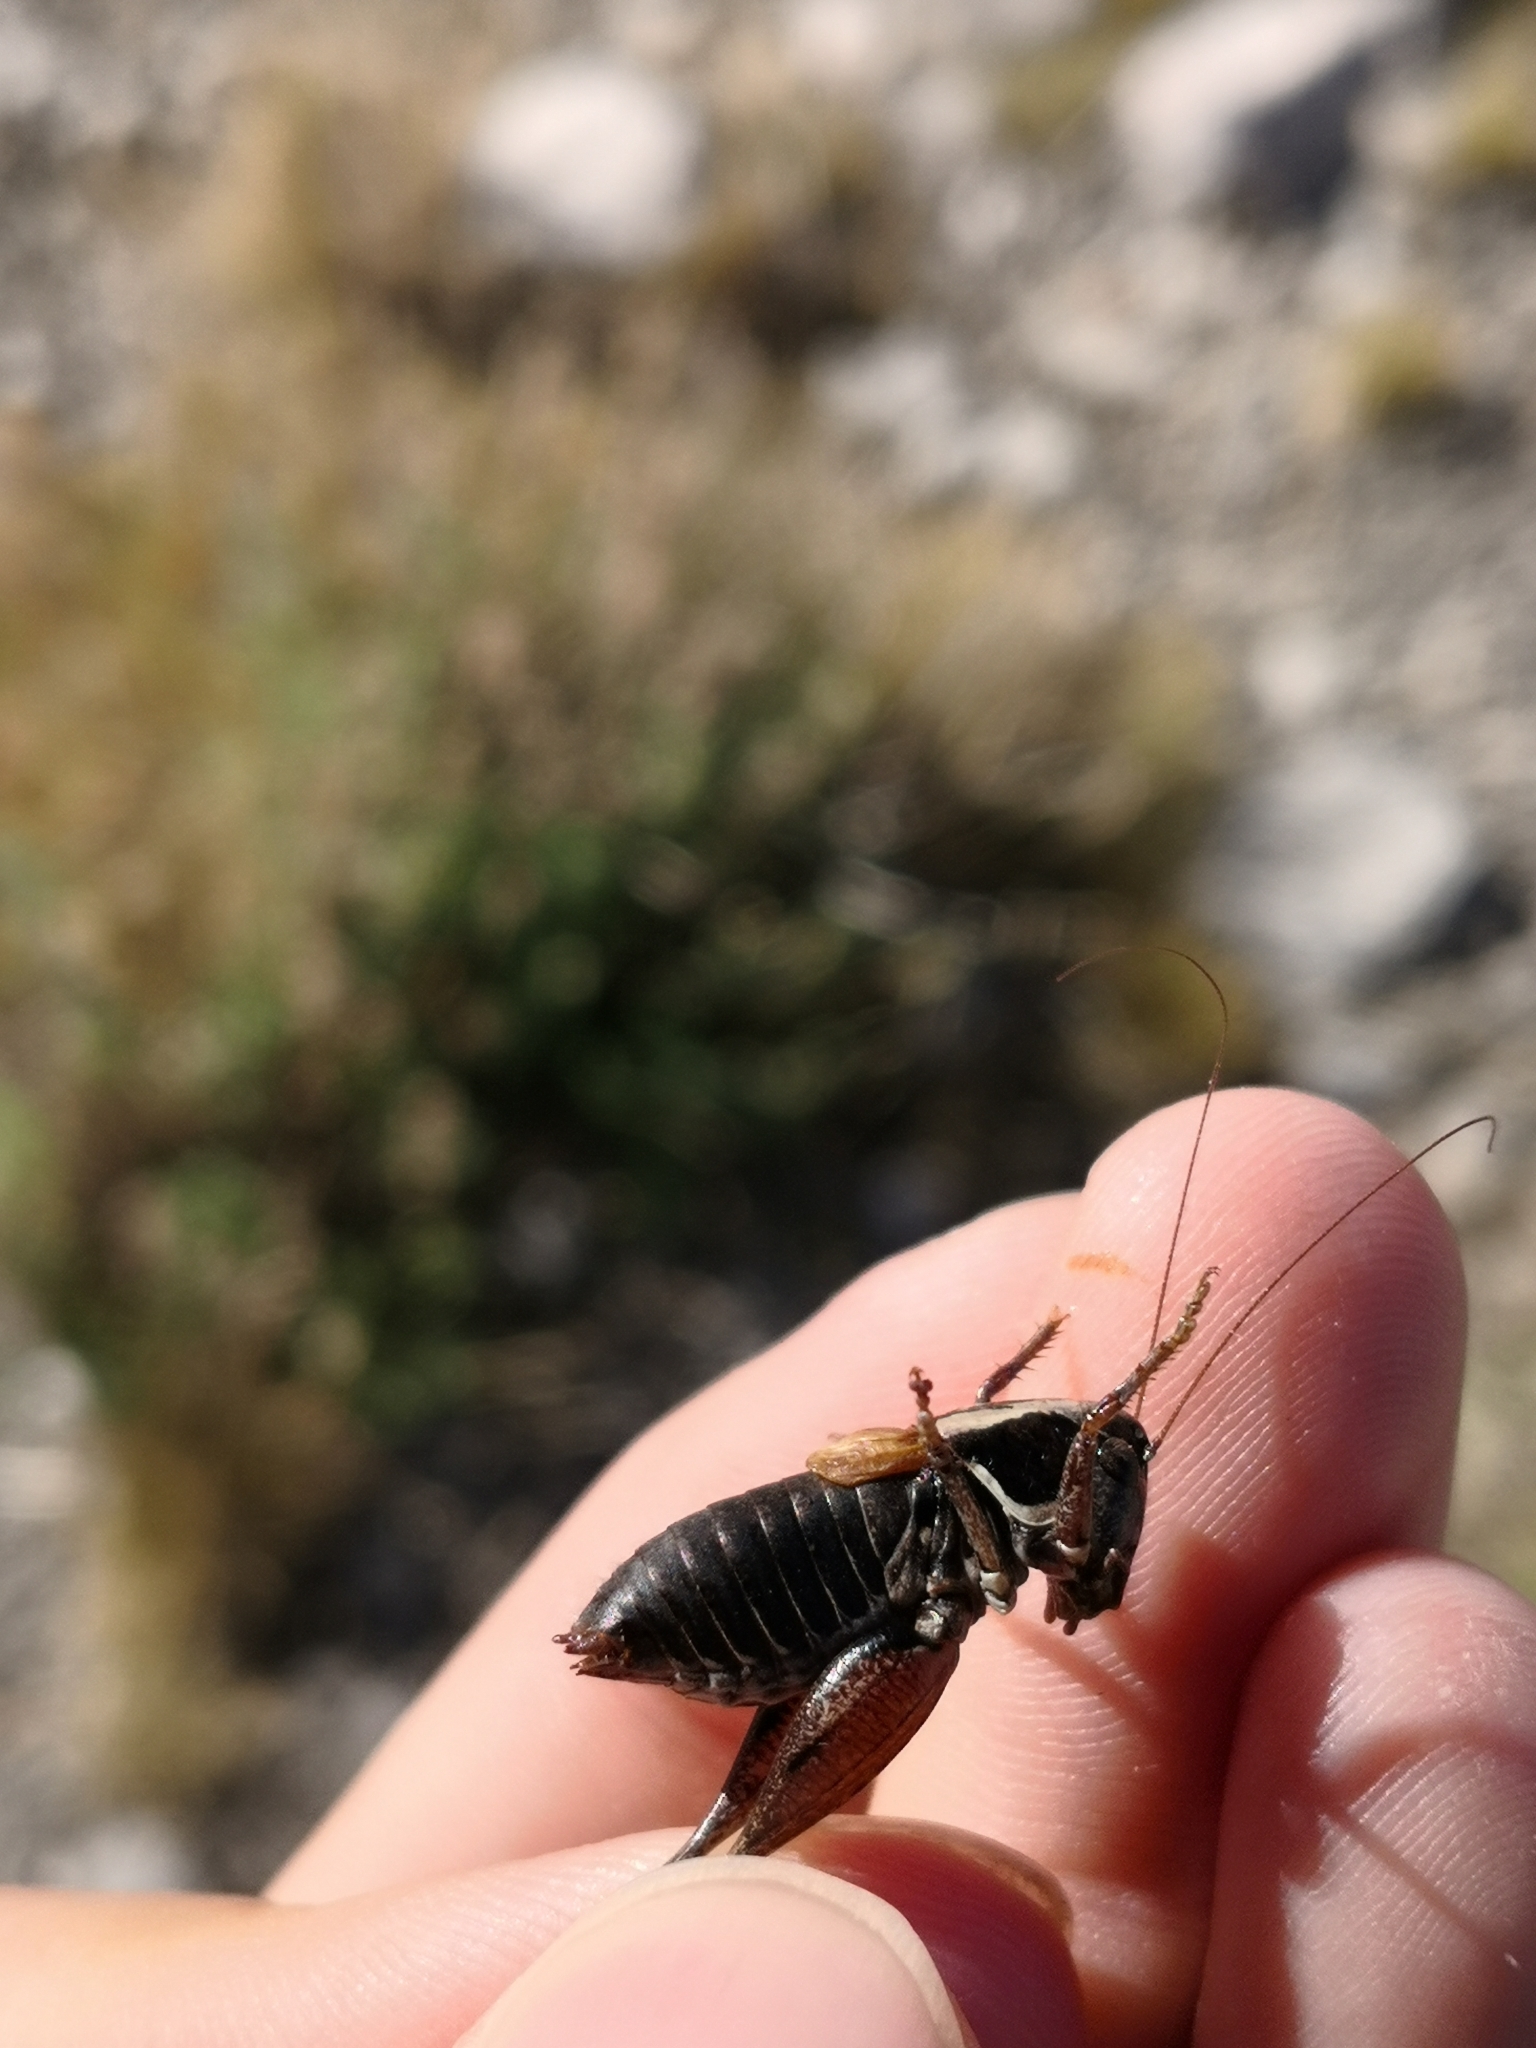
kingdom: Animalia
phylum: Arthropoda
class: Insecta
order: Orthoptera
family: Tettigoniidae
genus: Parnassiana
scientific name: Parnassiana parnassica
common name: Parnassos greek bush-cricket
